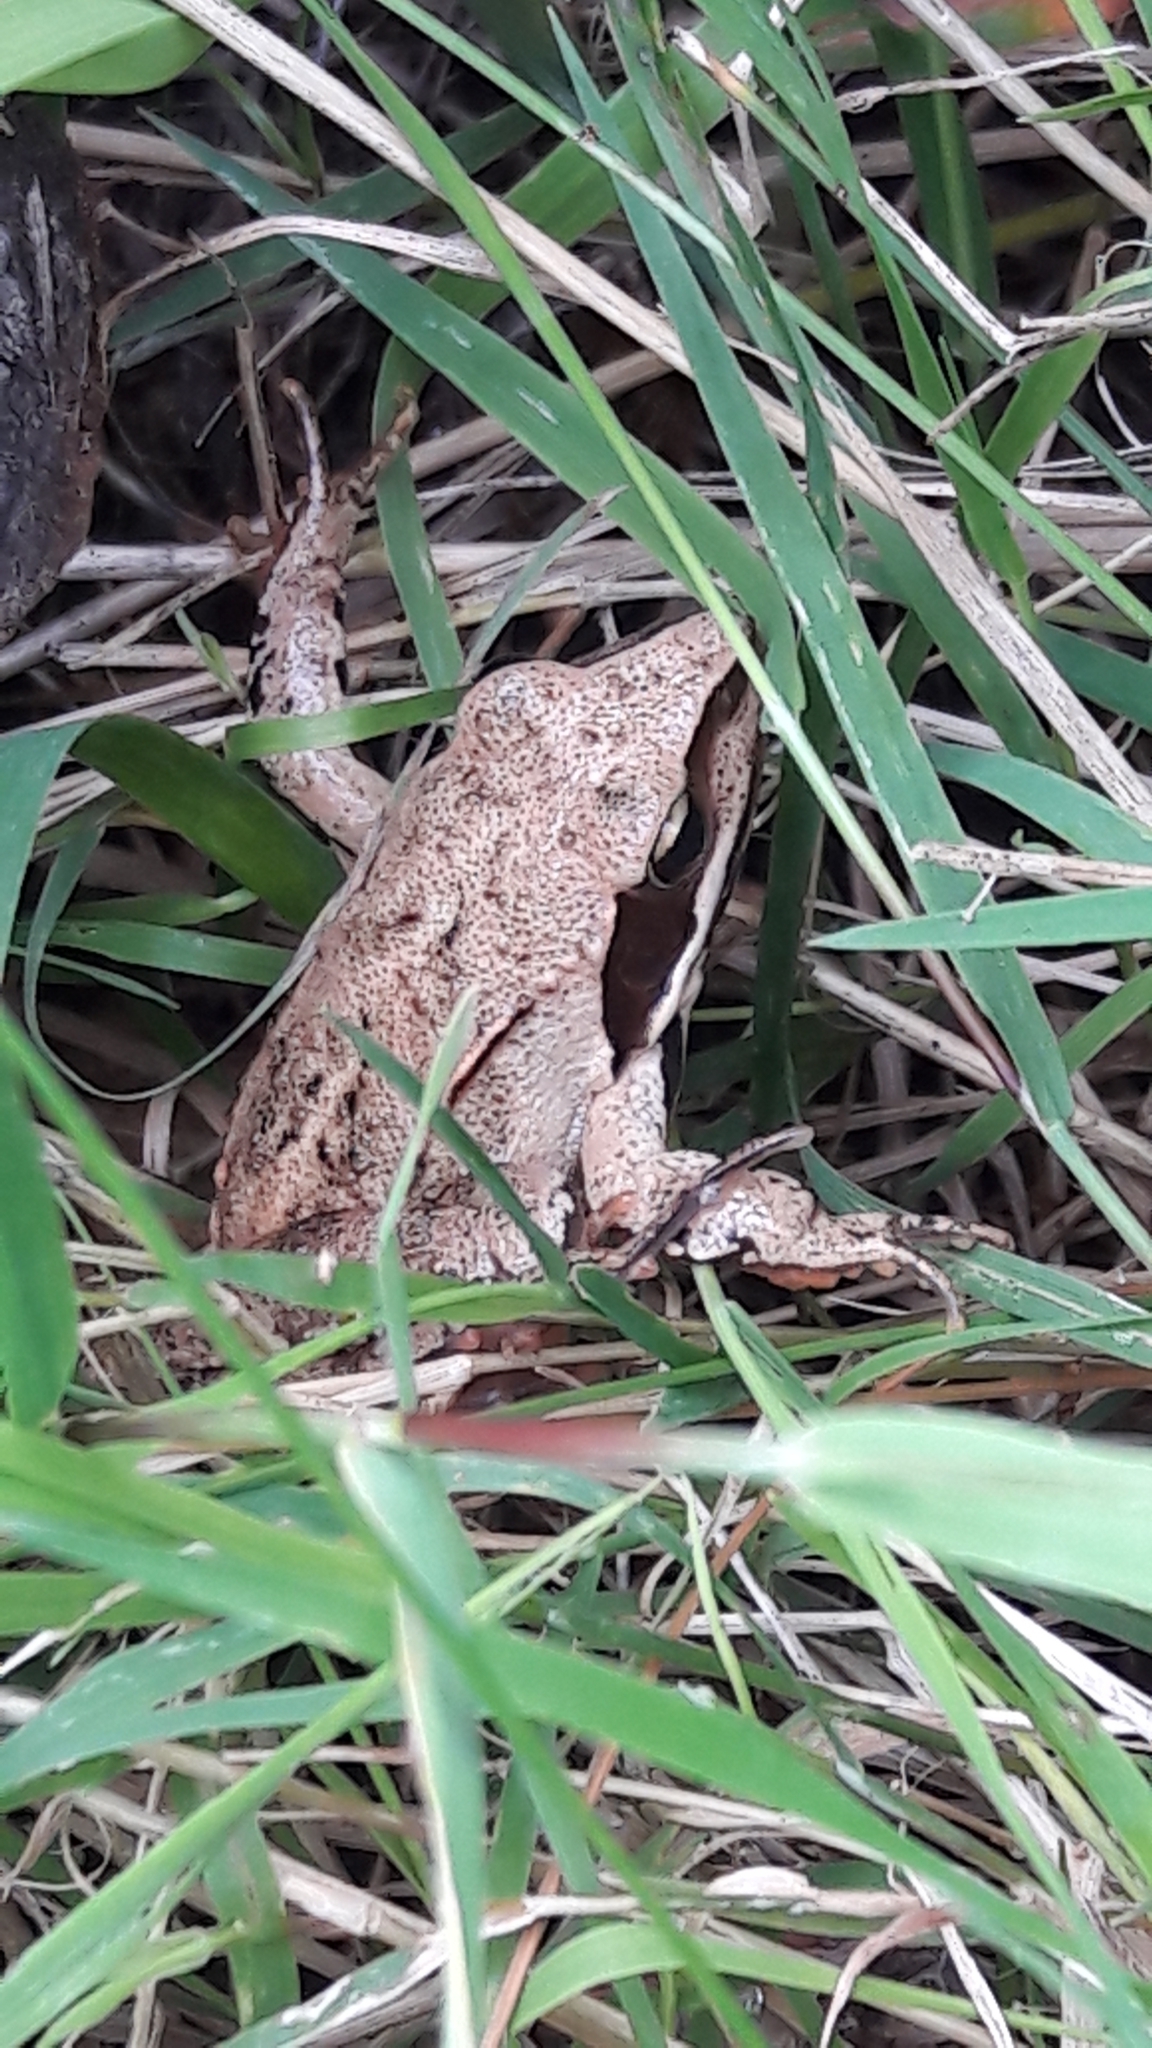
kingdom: Animalia
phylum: Chordata
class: Amphibia
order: Anura
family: Ranidae
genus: Rana
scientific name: Rana dalmatina
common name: Agile frog
